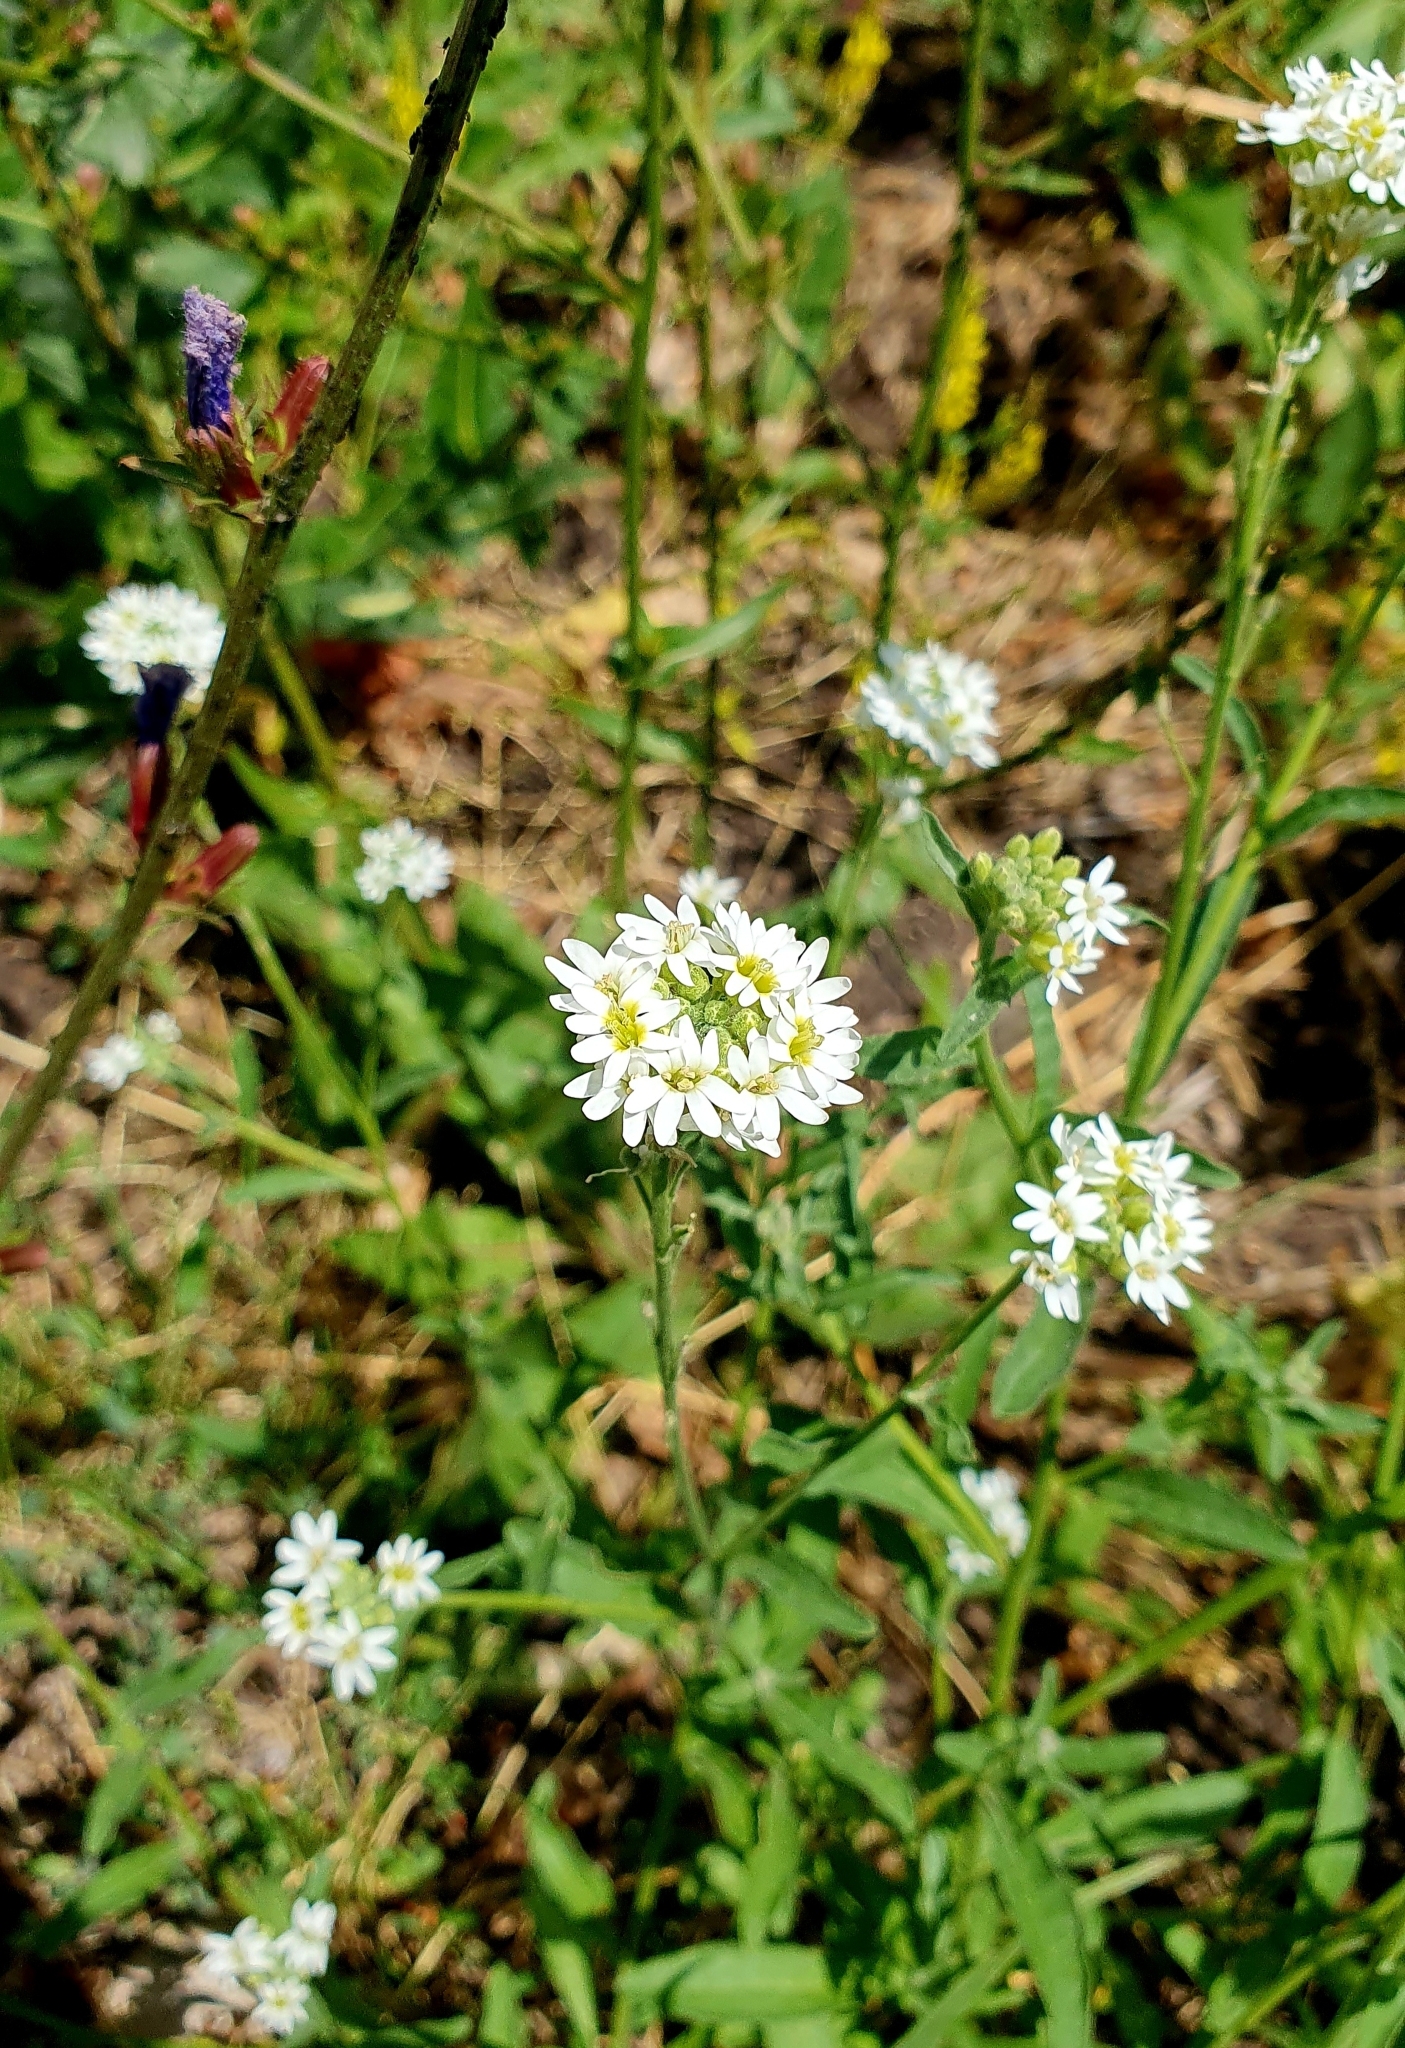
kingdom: Plantae
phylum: Tracheophyta
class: Magnoliopsida
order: Brassicales
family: Brassicaceae
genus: Berteroa
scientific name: Berteroa incana
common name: Hoary alison
